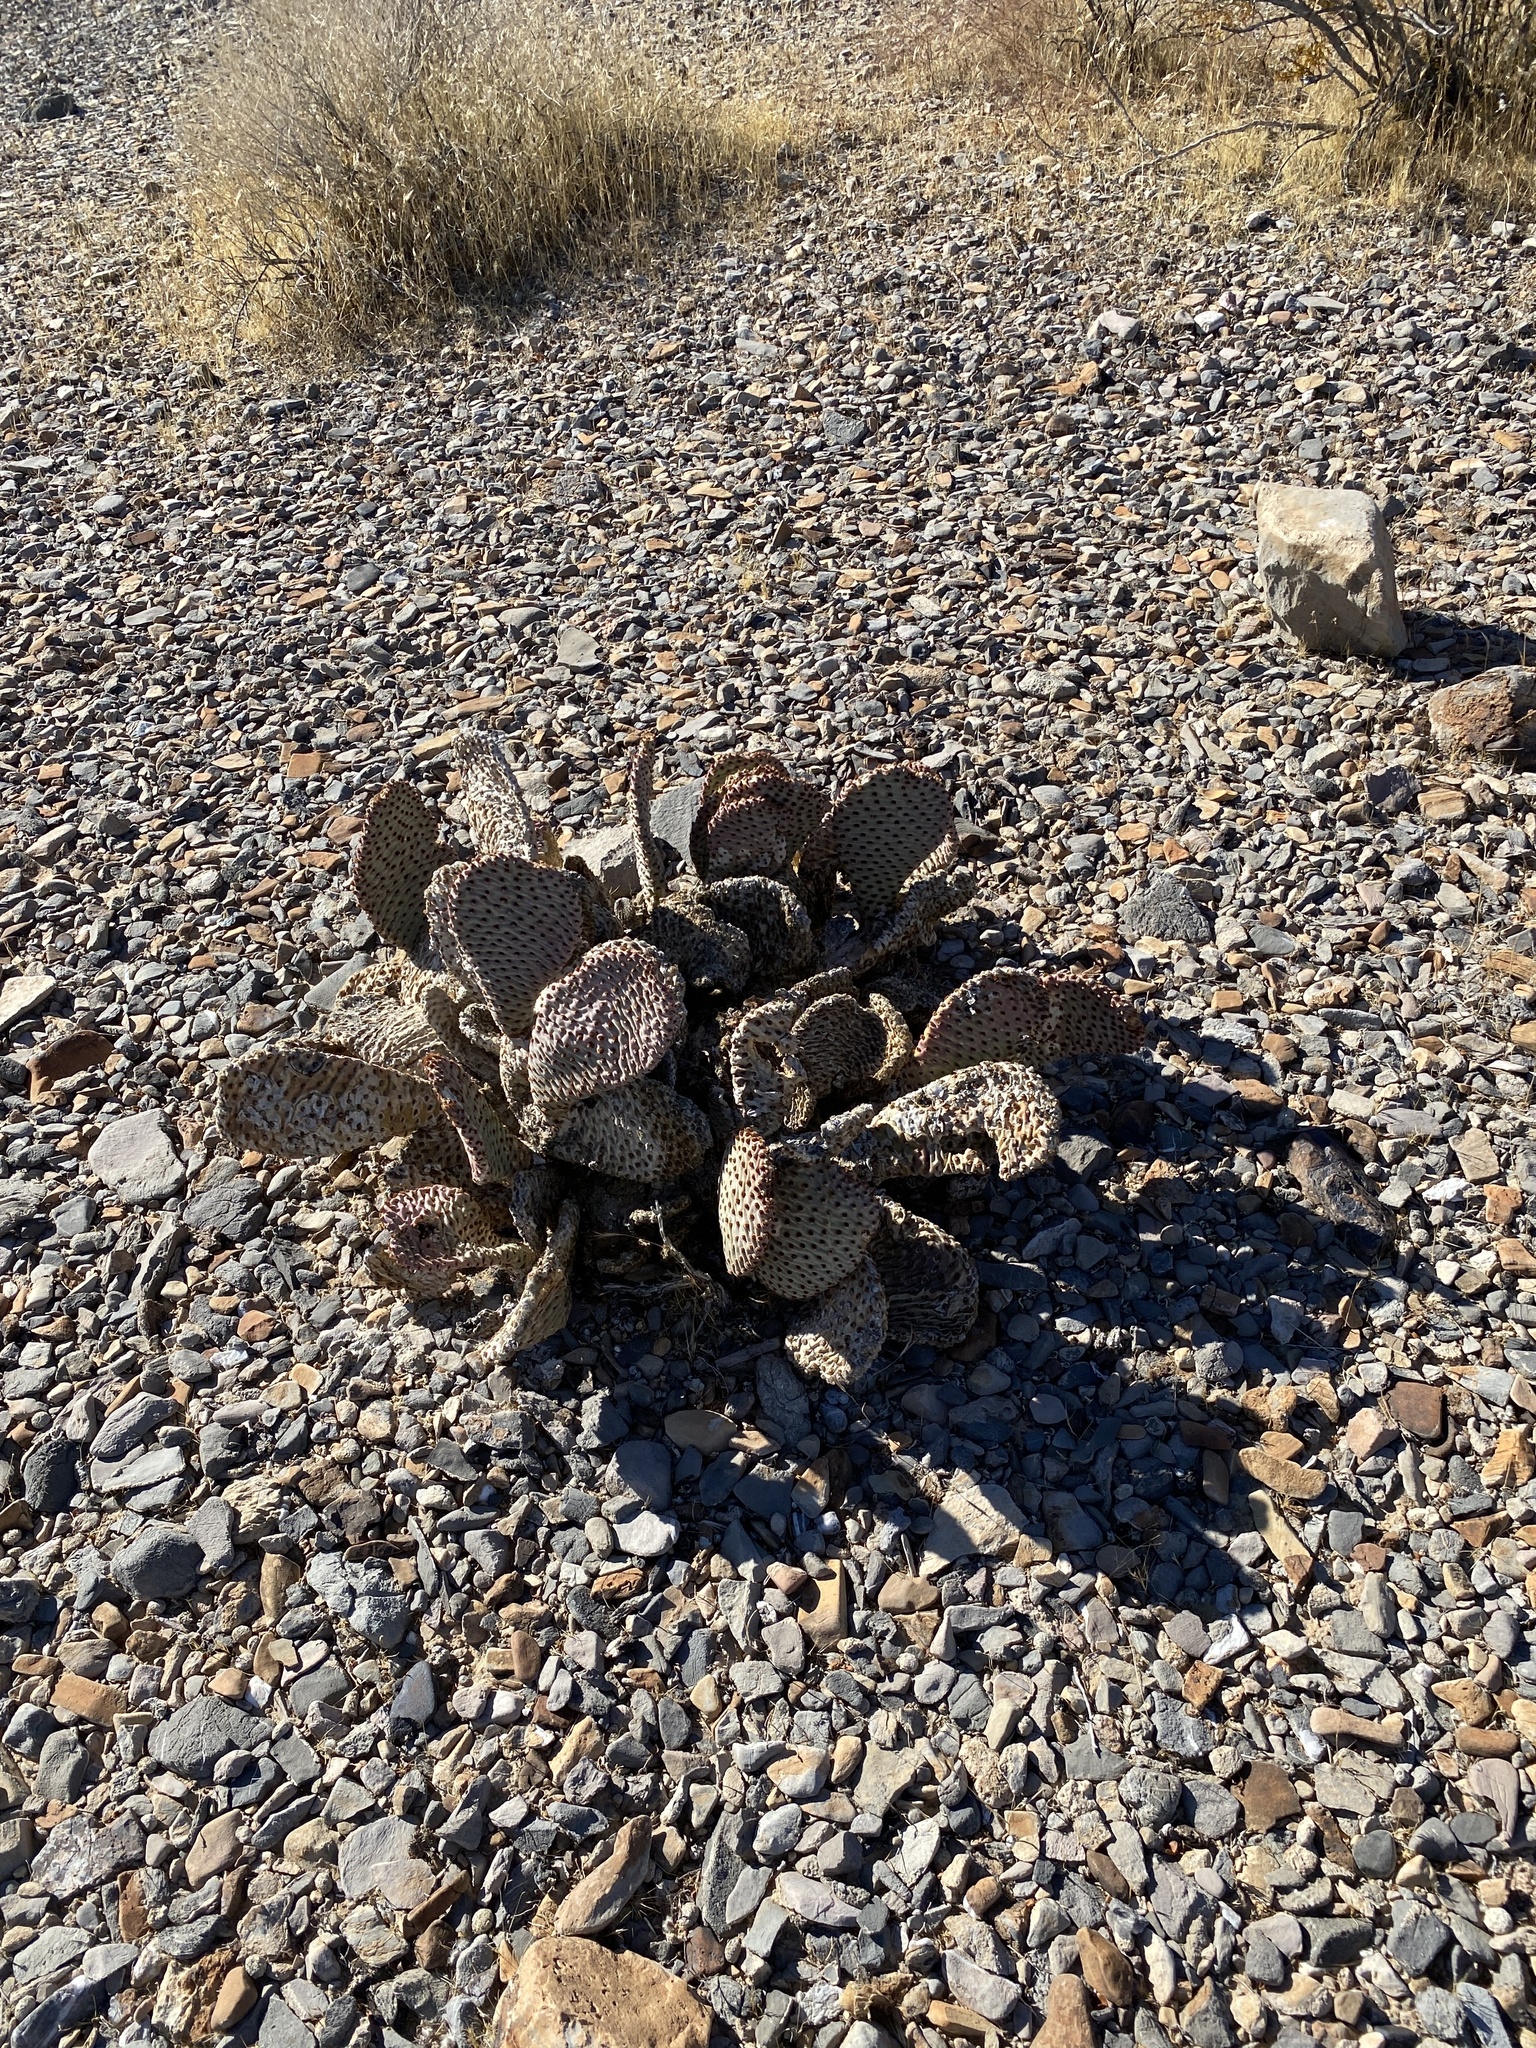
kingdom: Plantae
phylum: Tracheophyta
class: Magnoliopsida
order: Caryophyllales
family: Cactaceae
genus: Opuntia
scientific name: Opuntia basilaris
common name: Beavertail prickly-pear
